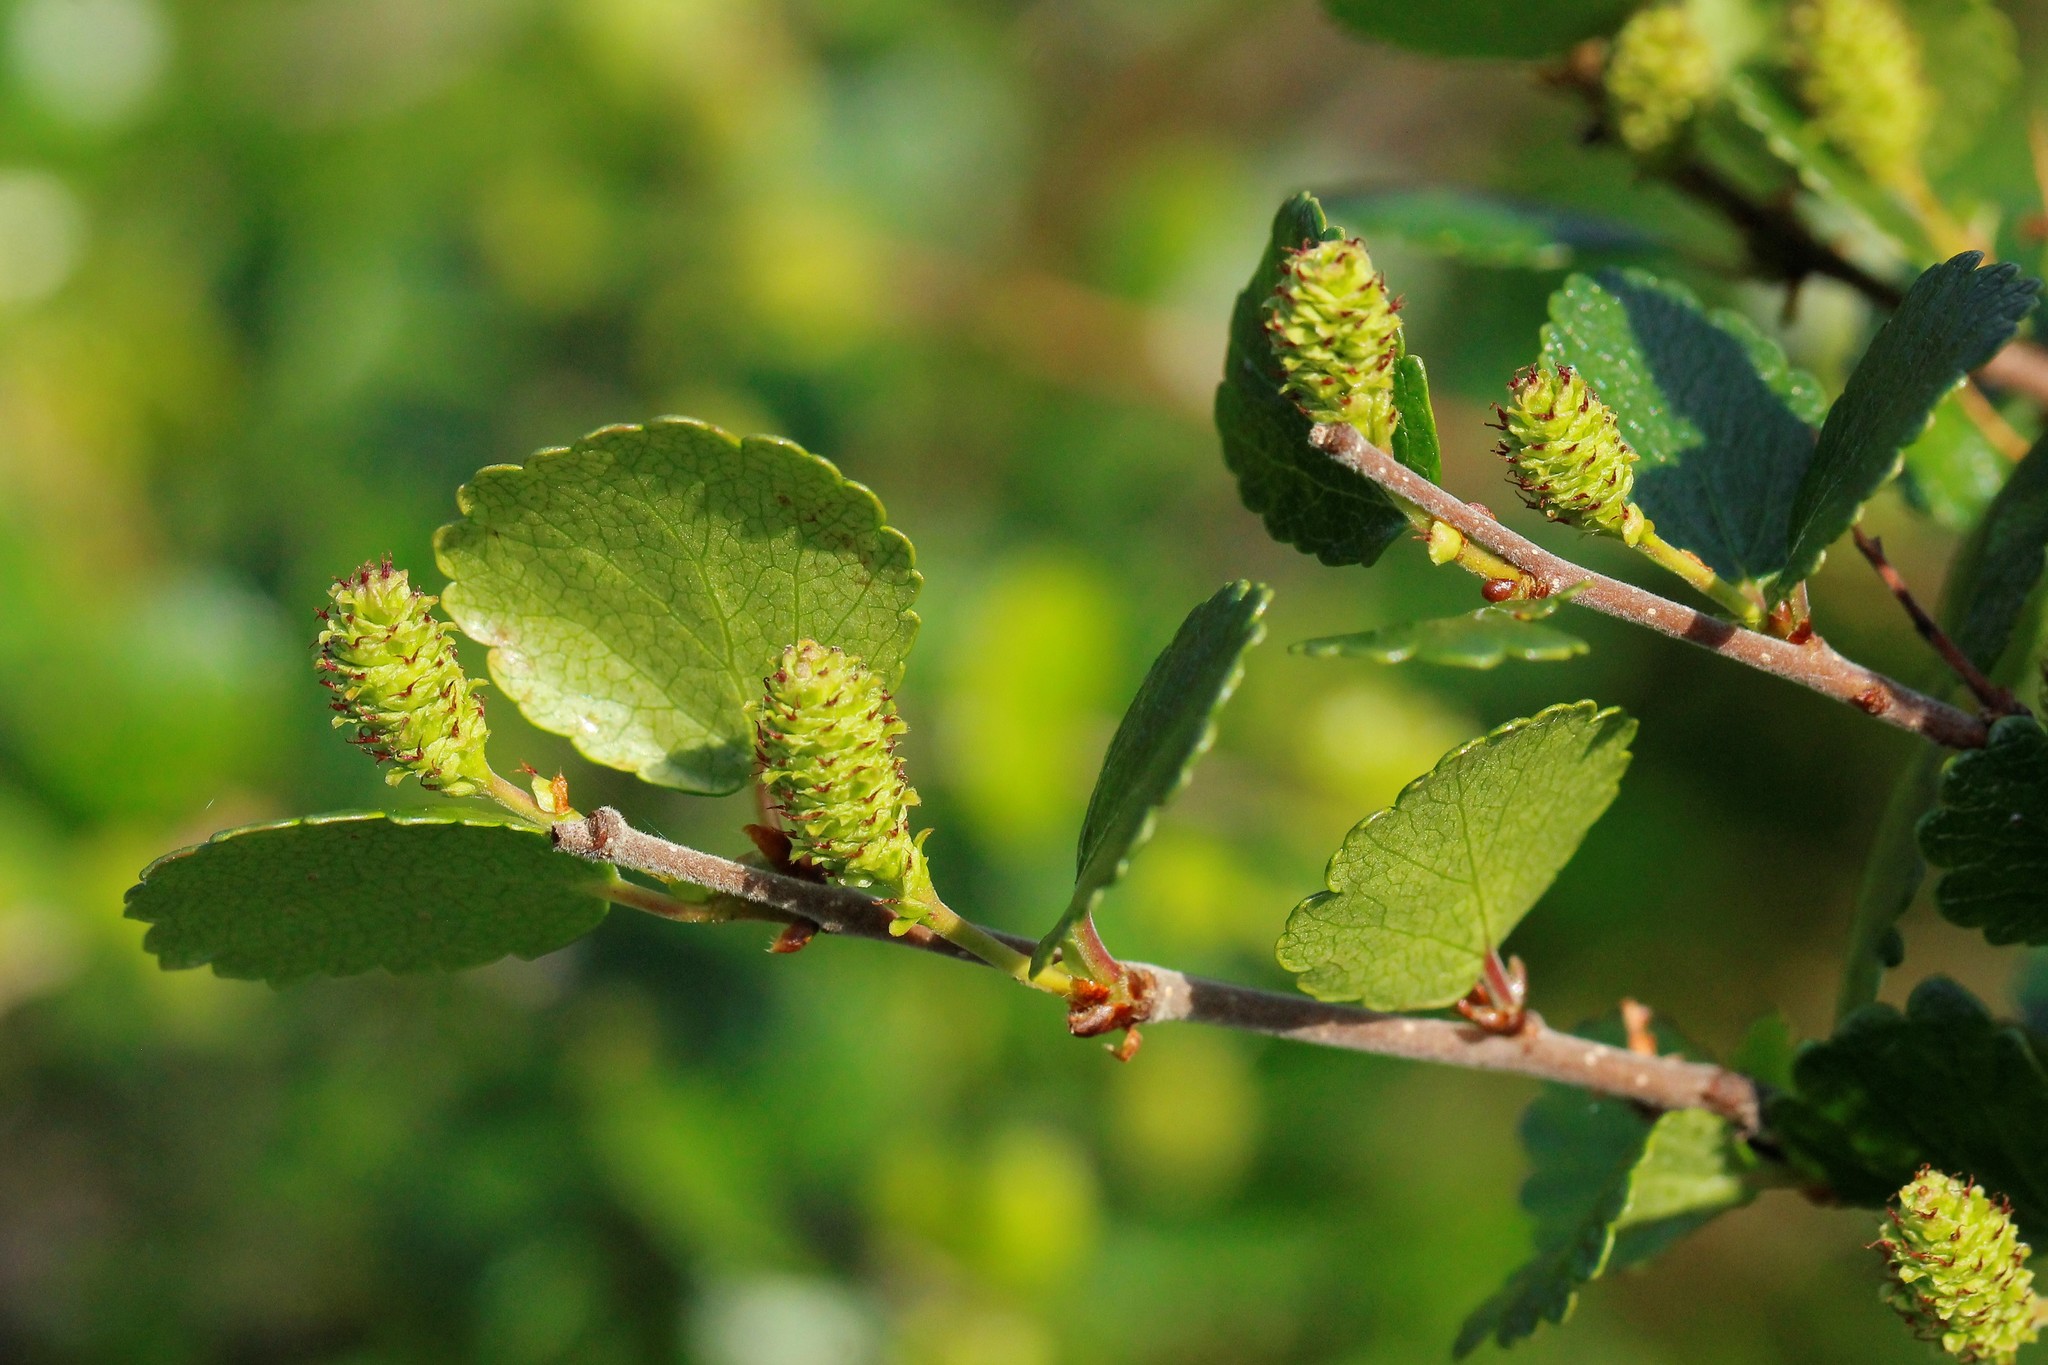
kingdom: Plantae
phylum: Tracheophyta
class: Magnoliopsida
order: Fagales
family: Betulaceae
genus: Betula
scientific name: Betula nana
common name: Arctic dwarf birch
